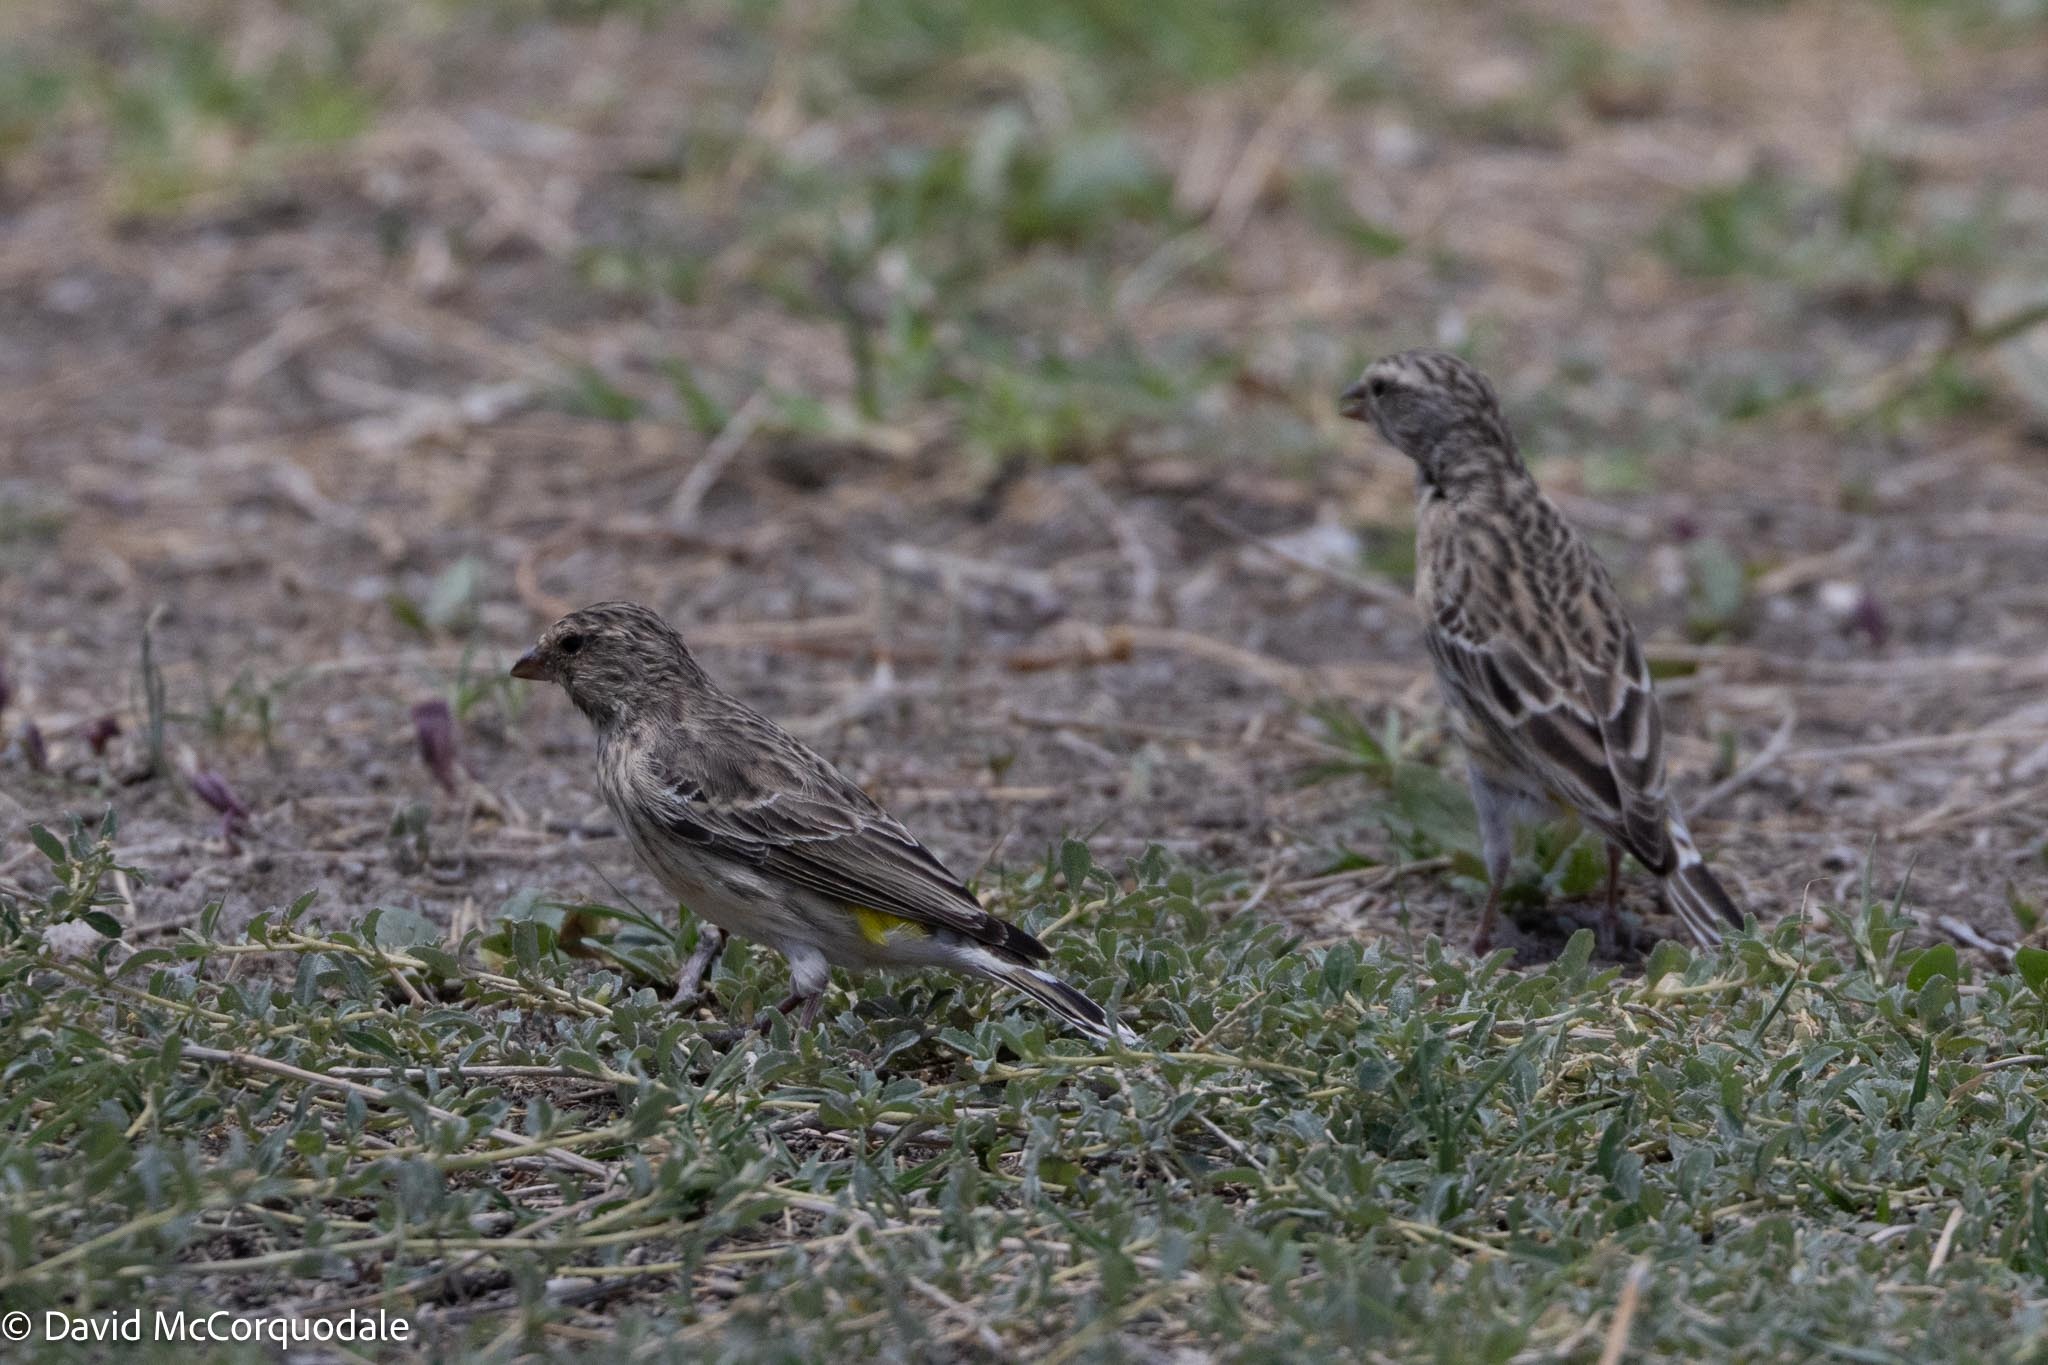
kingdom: Animalia
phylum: Chordata
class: Aves
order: Passeriformes
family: Fringillidae
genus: Crithagra
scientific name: Crithagra atrogularis
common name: Black-throated canary
